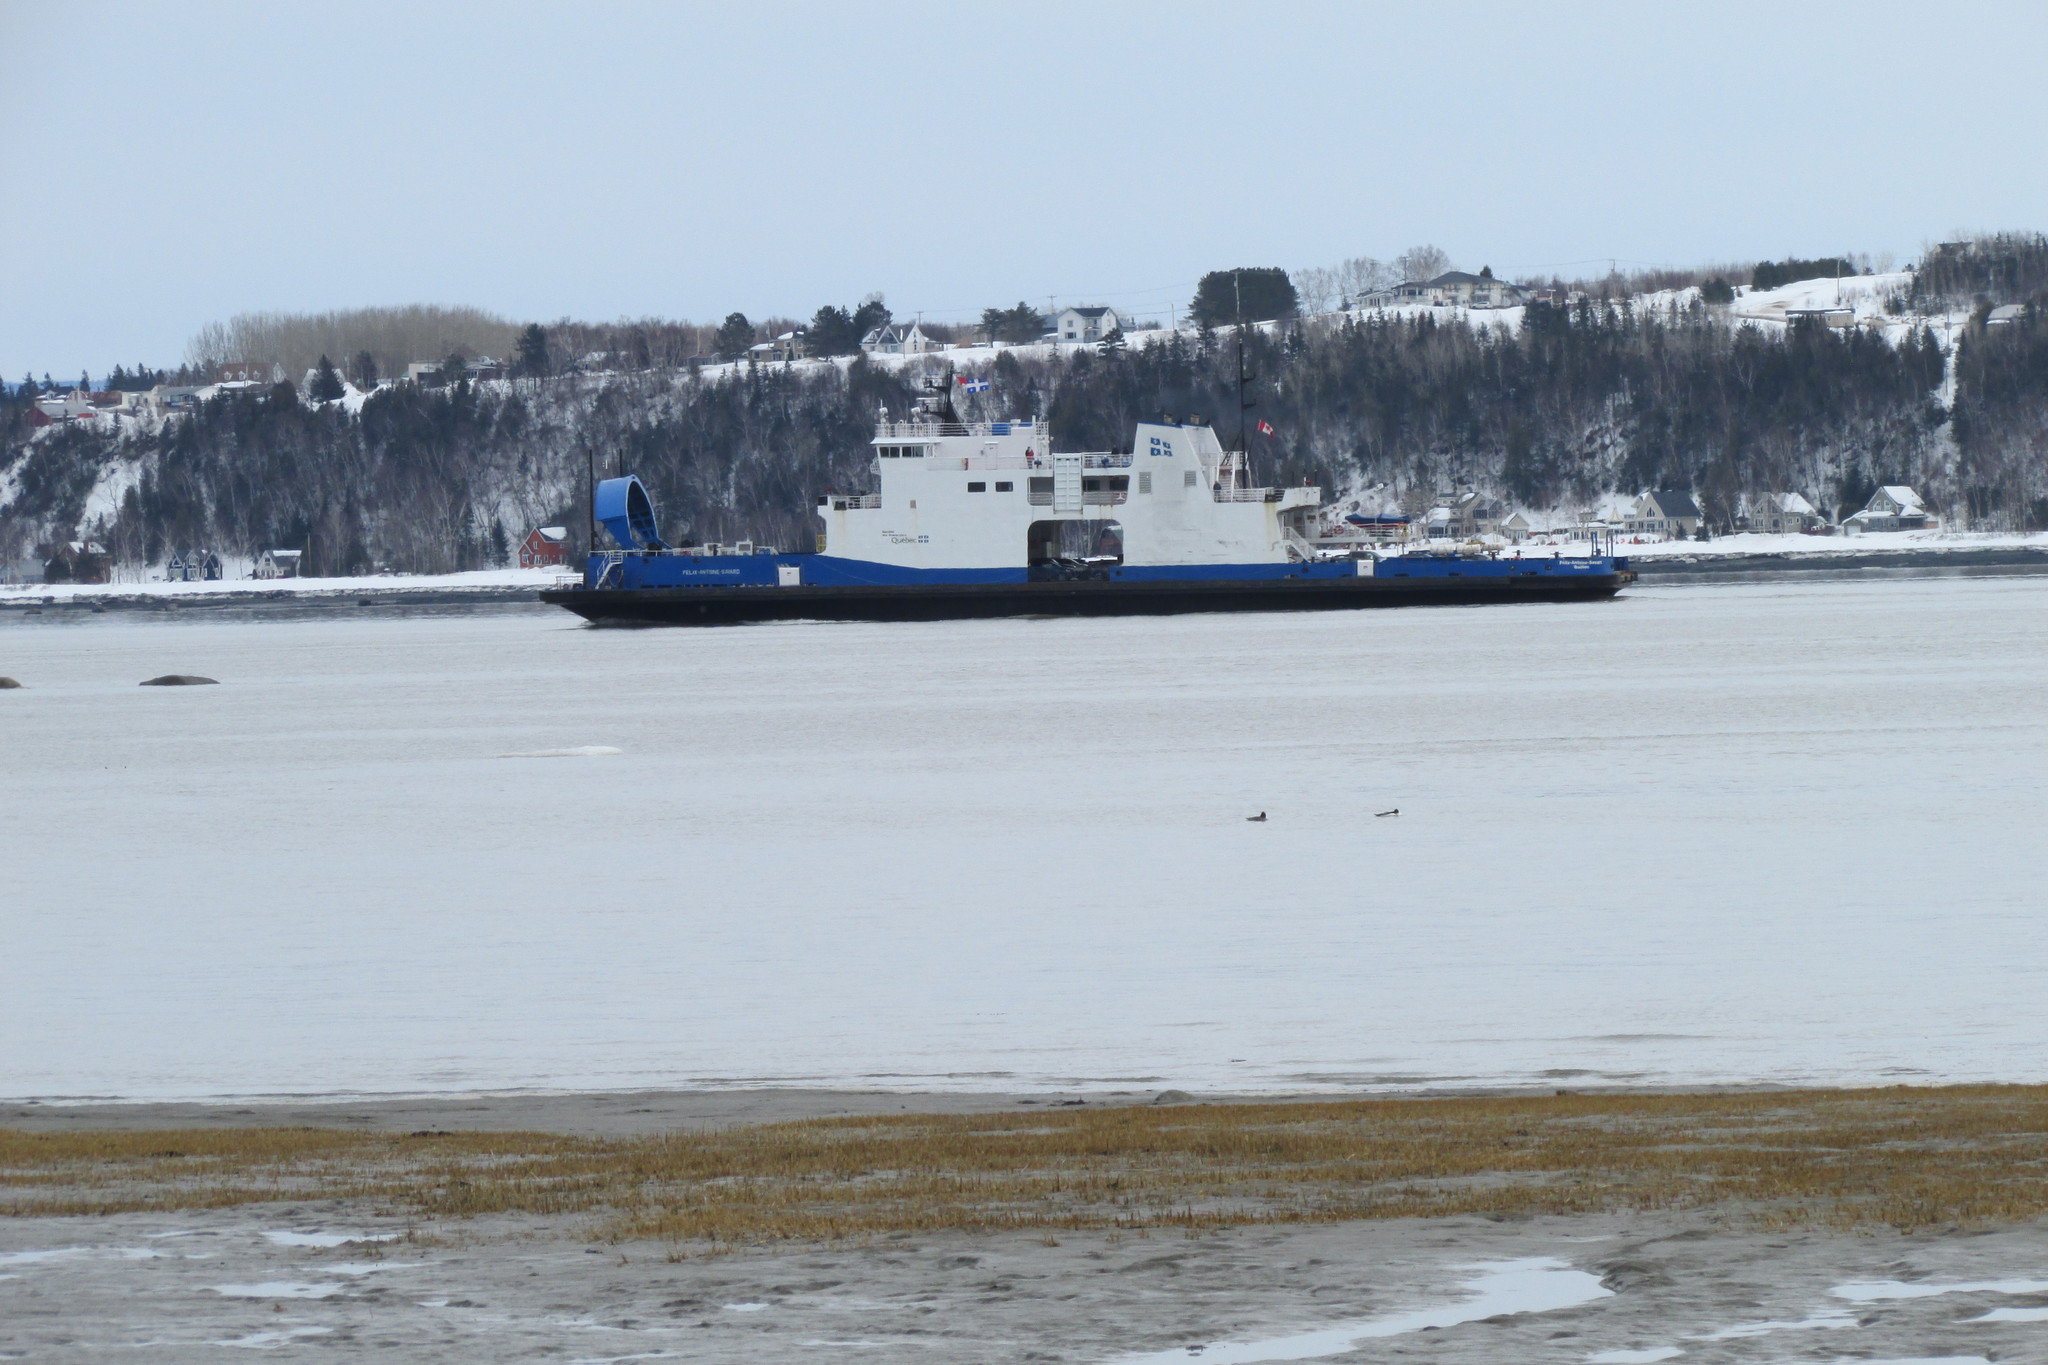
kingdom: Animalia
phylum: Chordata
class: Aves
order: Anseriformes
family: Anatidae
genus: Mergus
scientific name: Mergus merganser
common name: Common merganser
